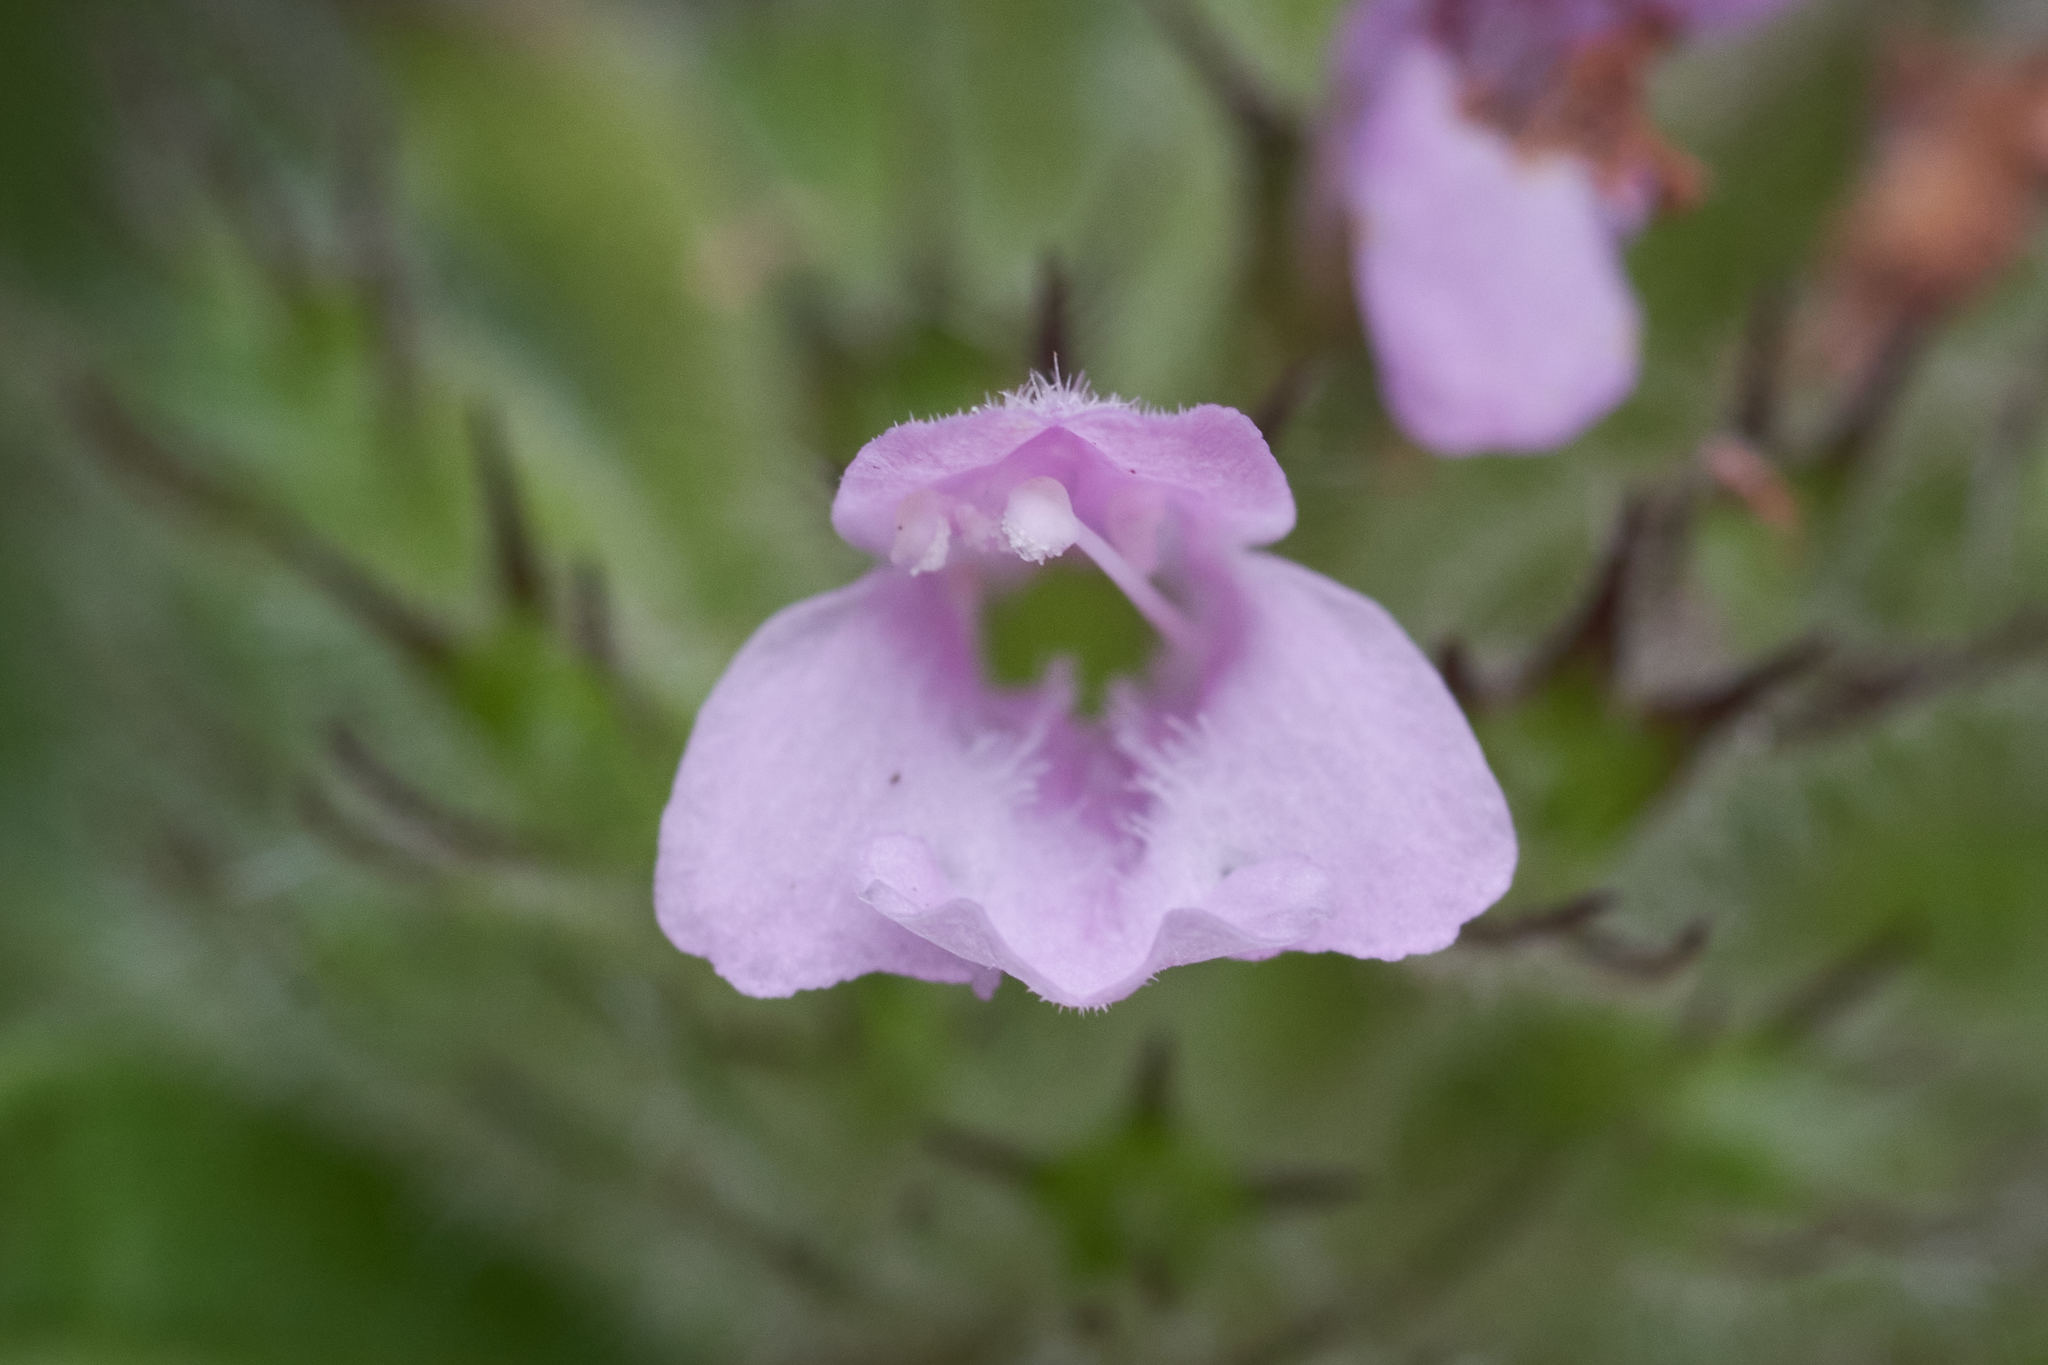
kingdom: Plantae
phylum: Tracheophyta
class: Magnoliopsida
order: Lamiales
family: Lamiaceae
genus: Clinopodium
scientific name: Clinopodium vulgare
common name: Wild basil
